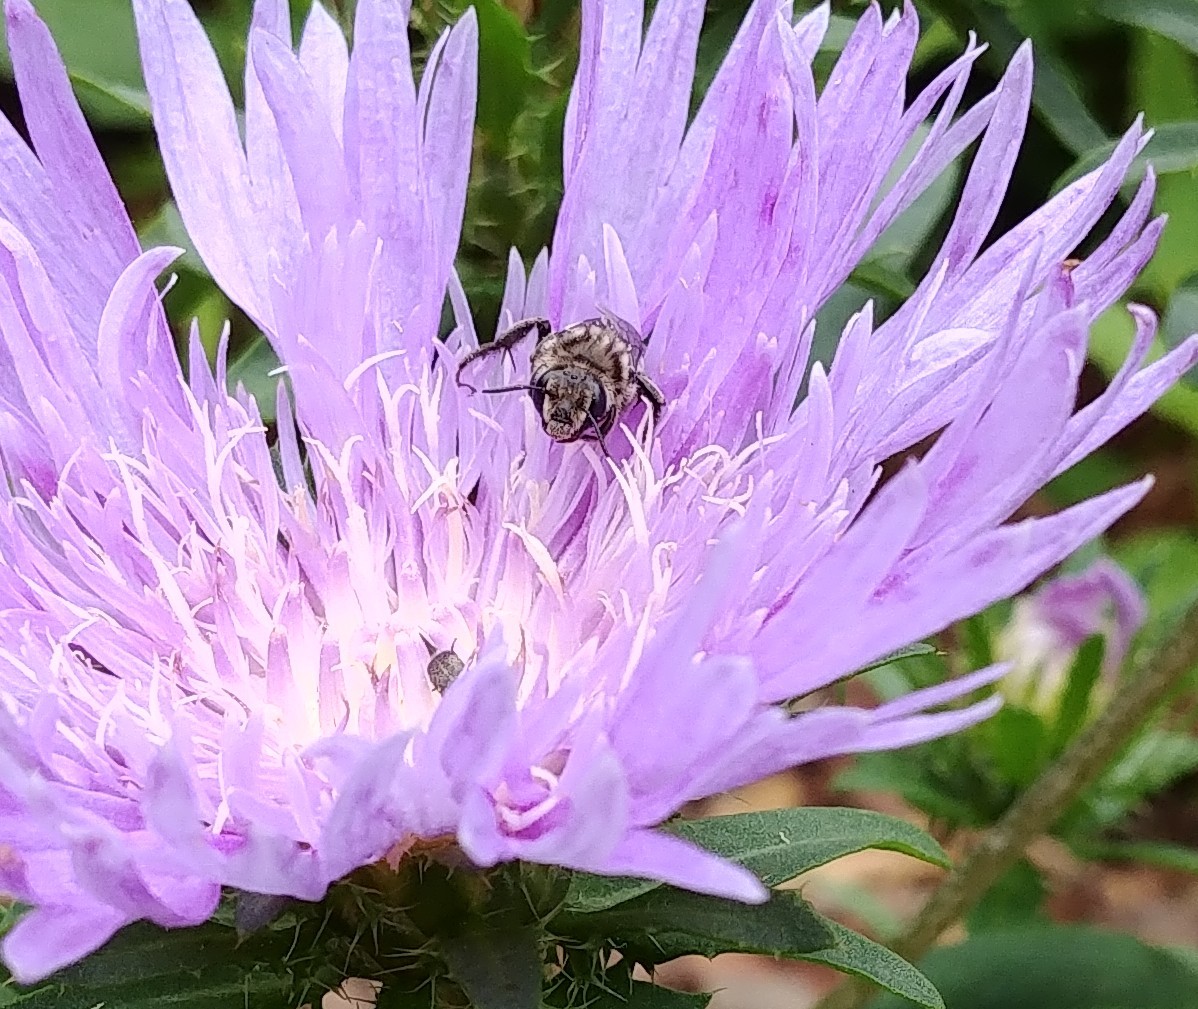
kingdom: Animalia
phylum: Arthropoda
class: Insecta
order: Hymenoptera
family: Apidae
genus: Melitoma
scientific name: Melitoma taurea
